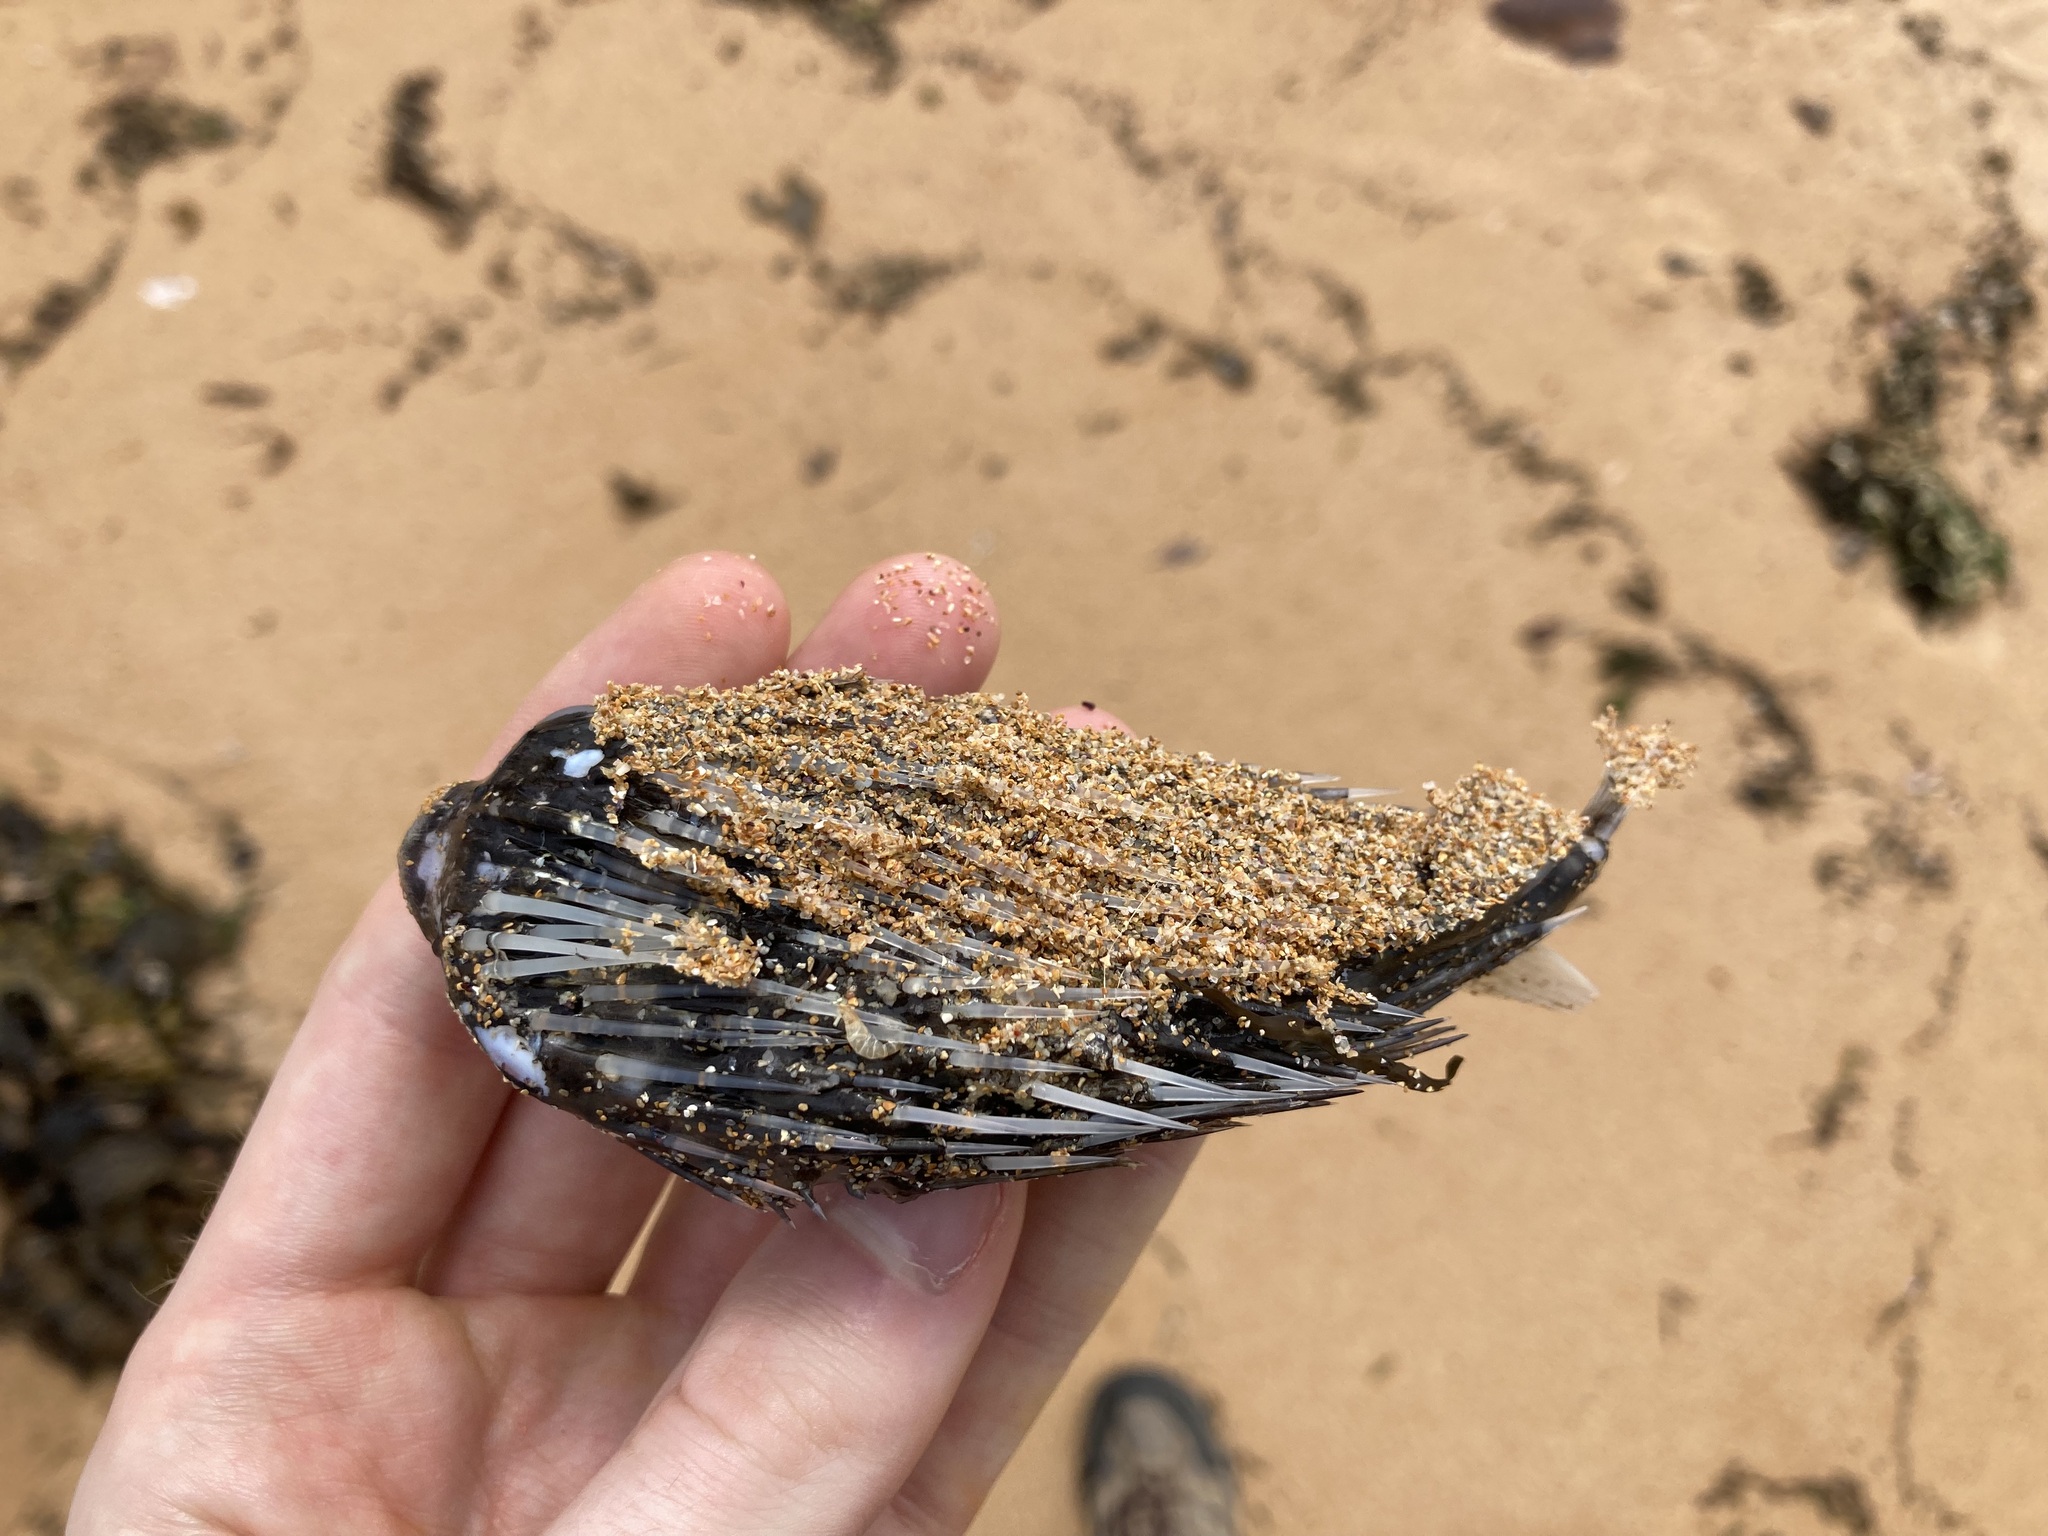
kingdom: Animalia
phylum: Chordata
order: Tetraodontiformes
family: Diodontidae
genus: Diodon
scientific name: Diodon holocanthus
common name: Balloonfish
